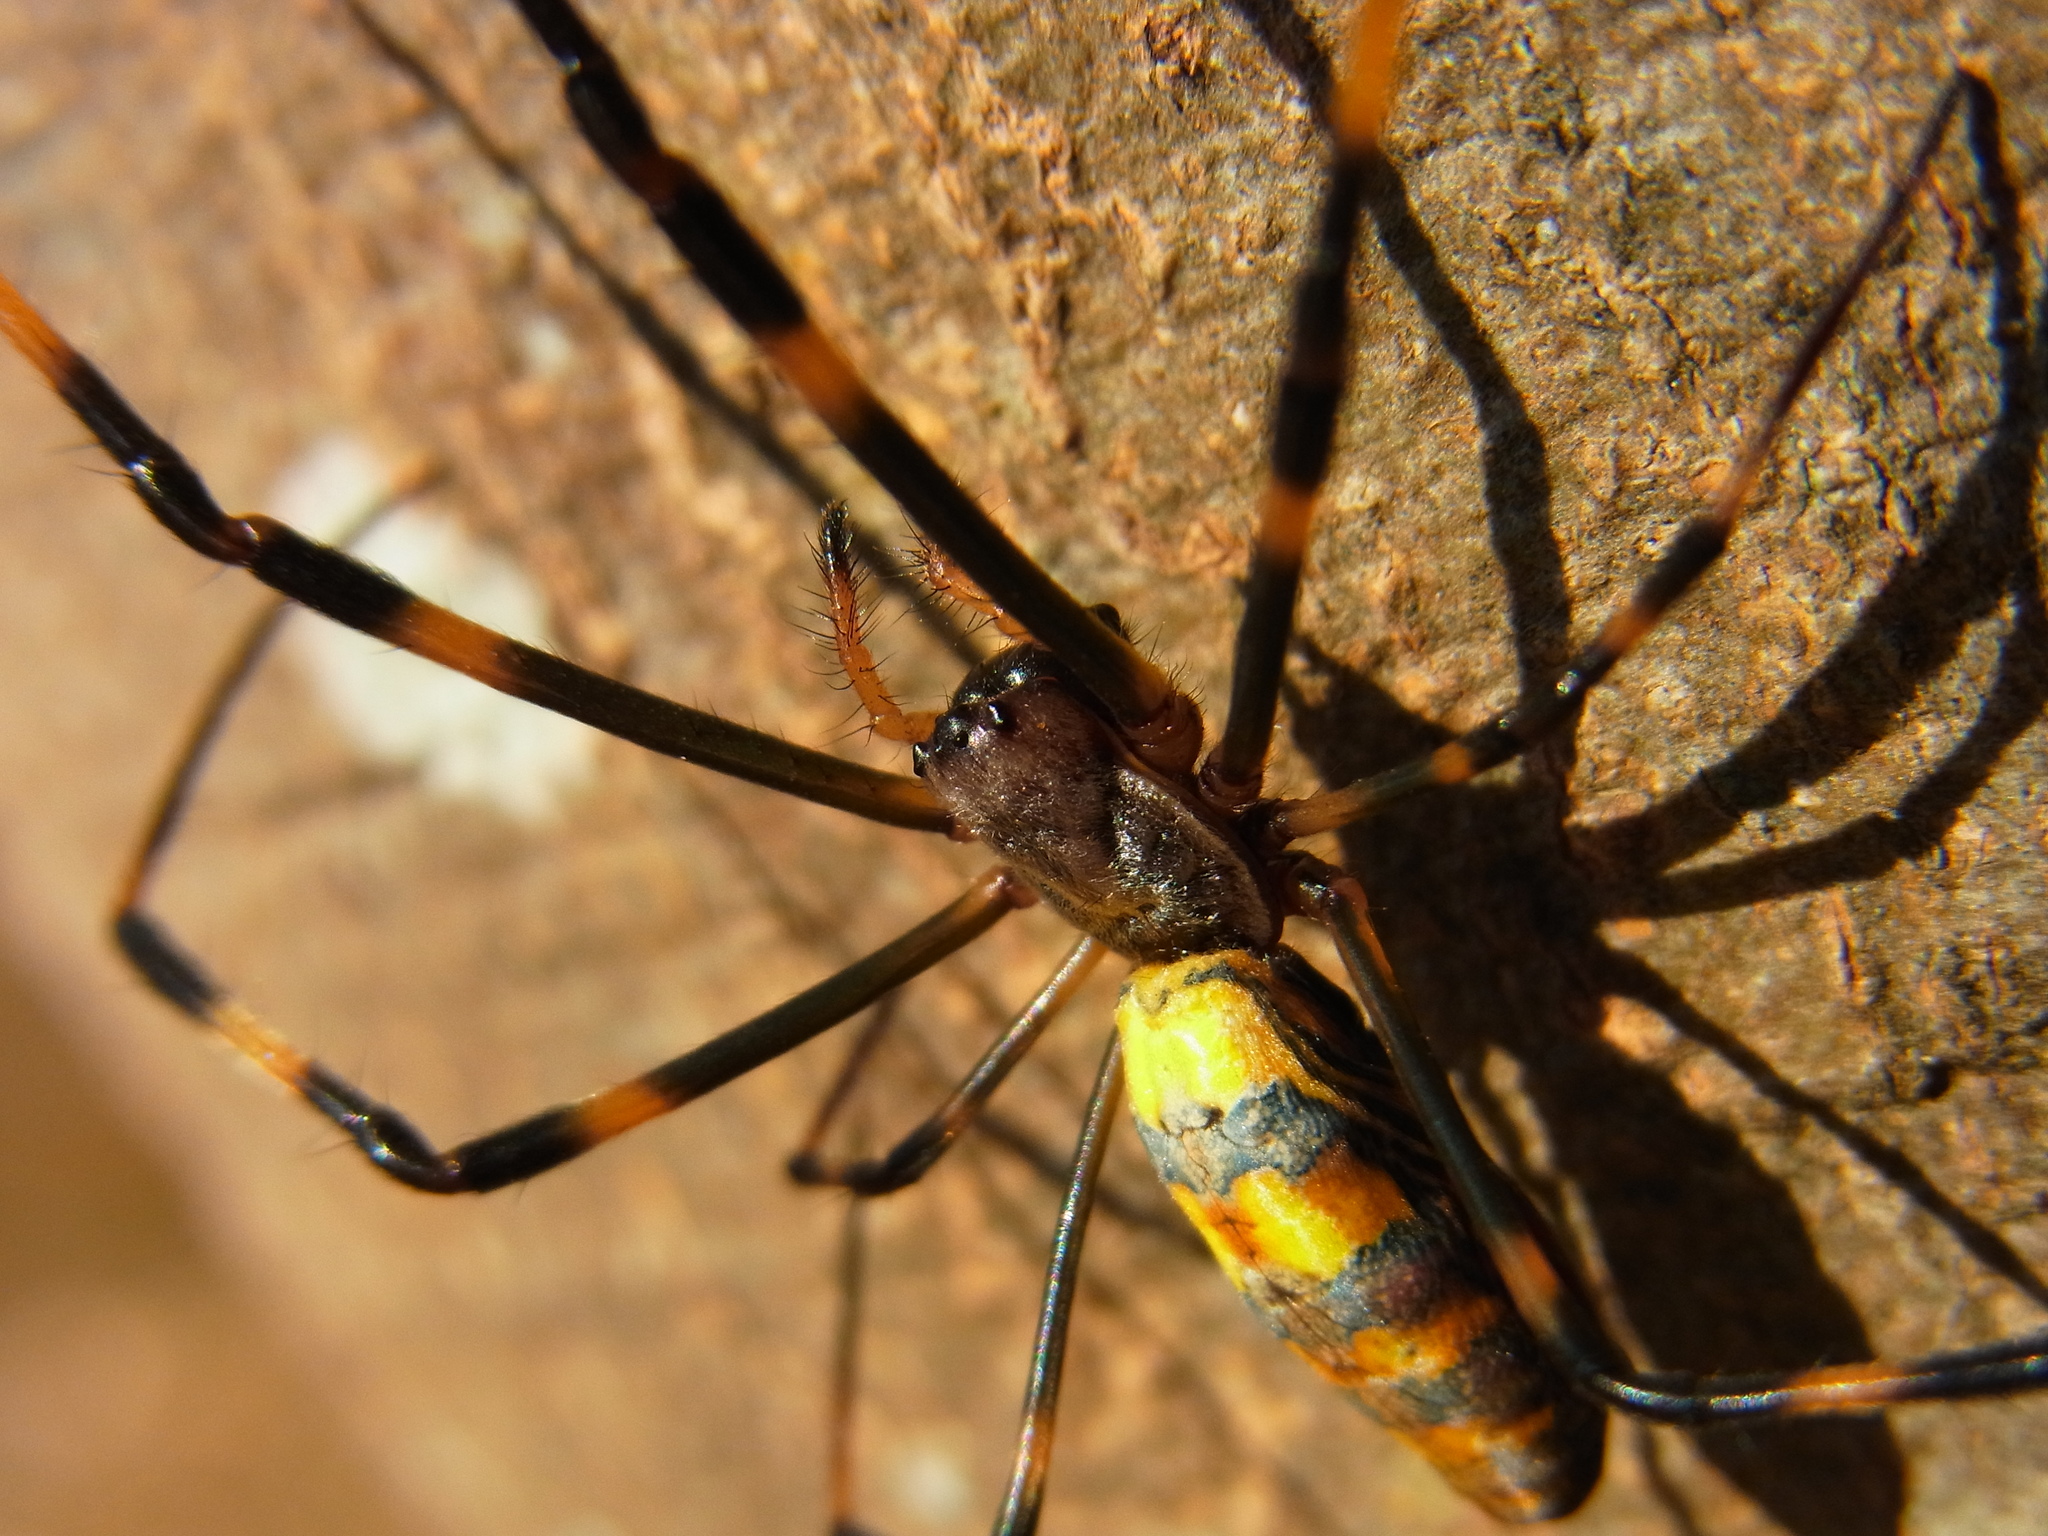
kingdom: Animalia
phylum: Arthropoda
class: Arachnida
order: Araneae
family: Araneidae
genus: Trichonephila
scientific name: Trichonephila clavata
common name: Jorō spider
